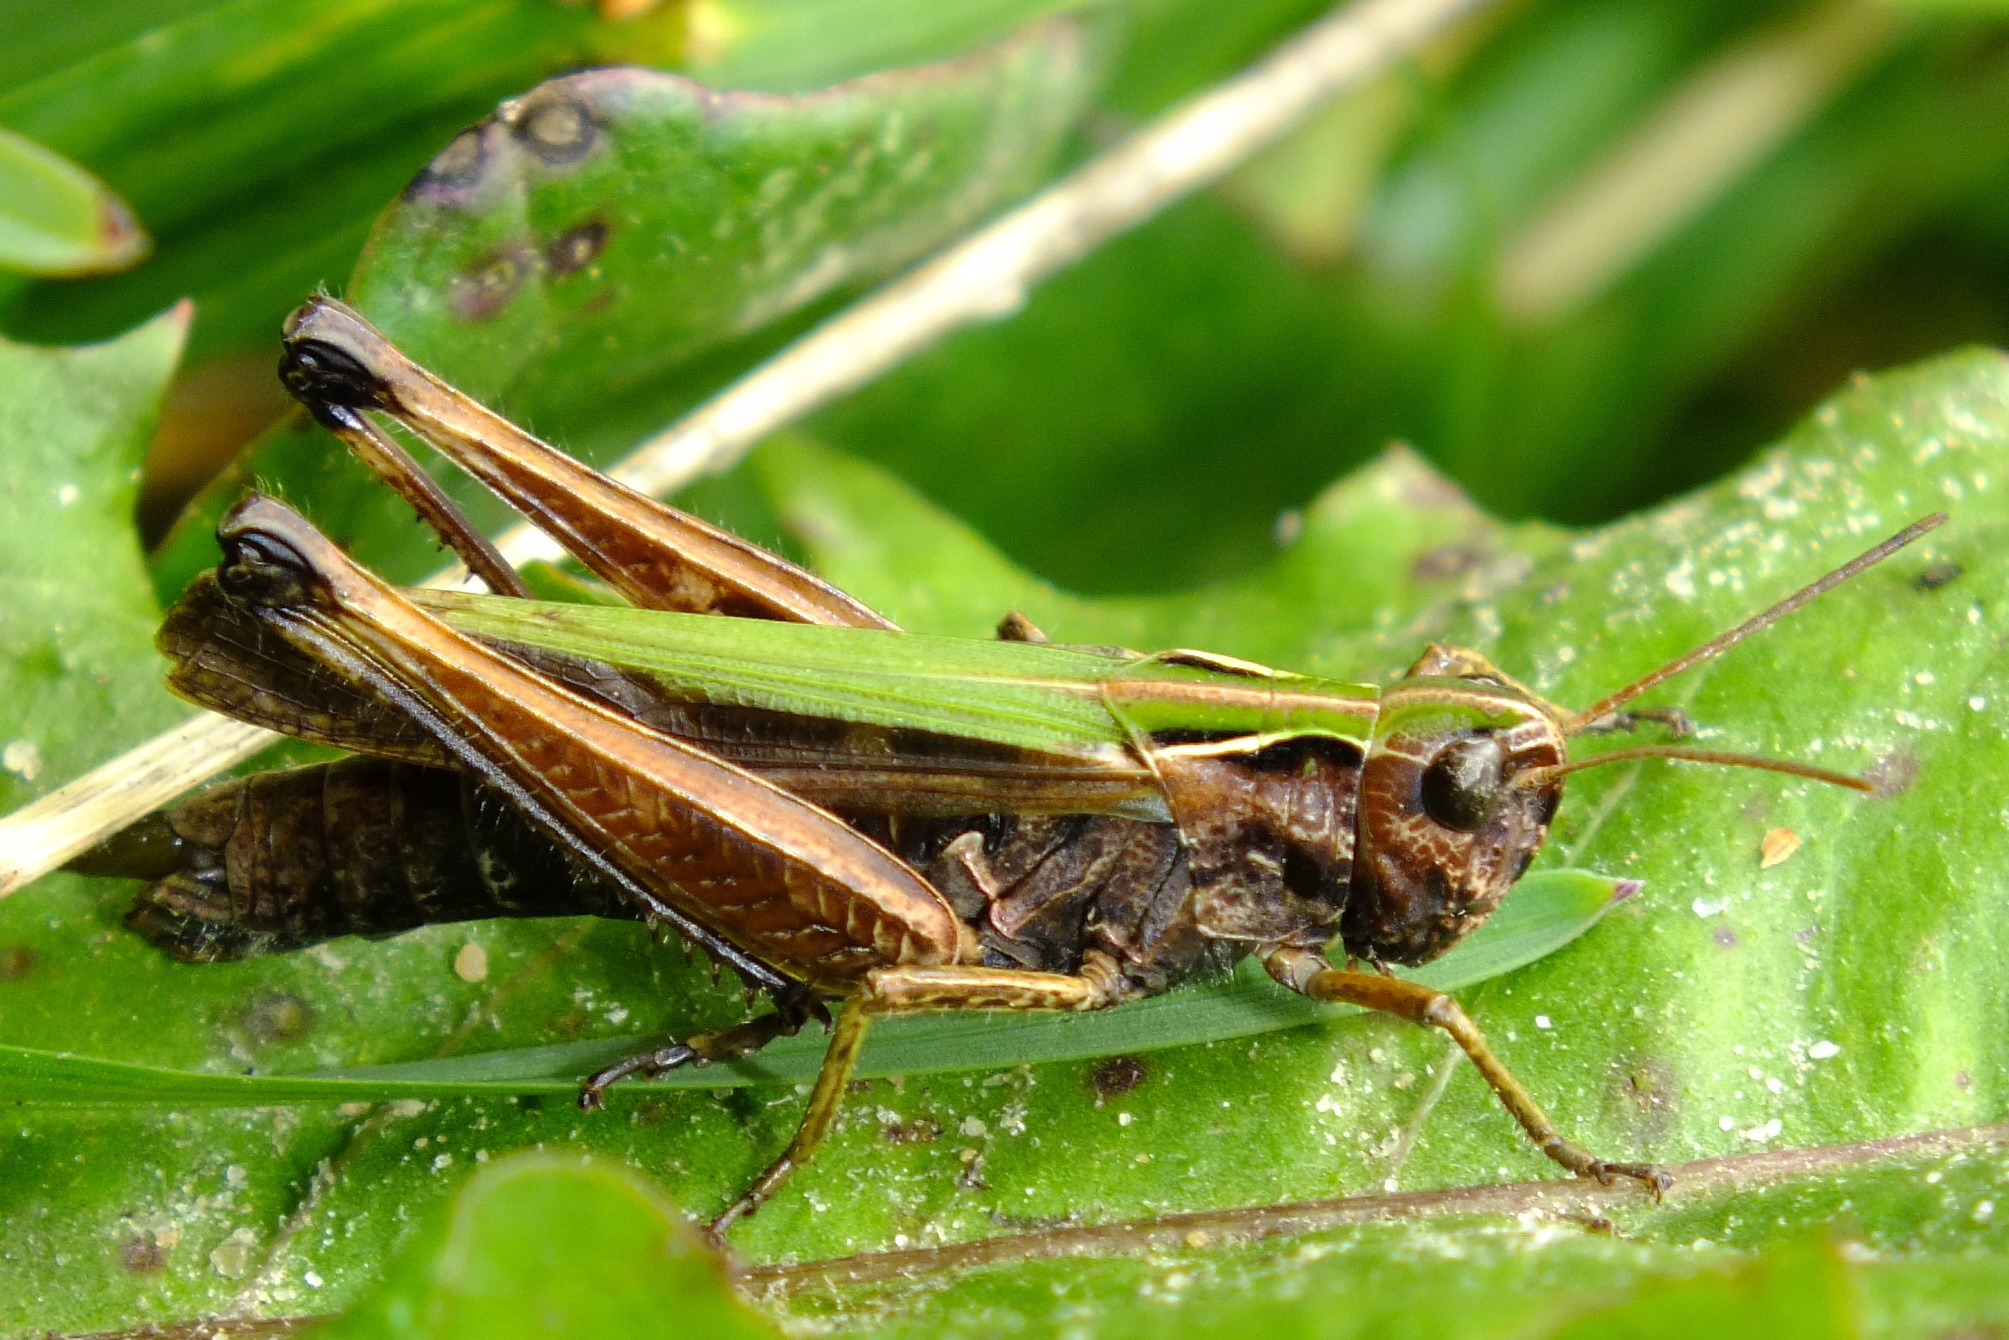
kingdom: Animalia
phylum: Arthropoda
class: Insecta
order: Orthoptera
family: Acrididae
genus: Omocestus
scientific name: Omocestus viridulus
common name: Common green grasshopper
